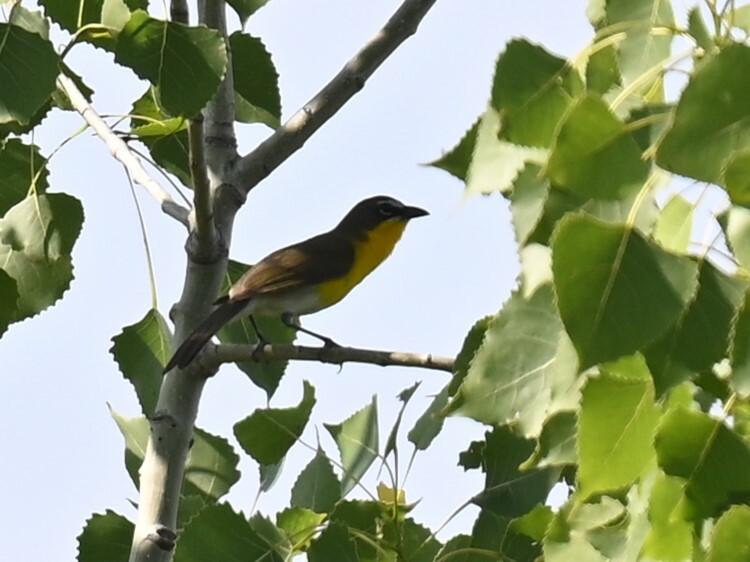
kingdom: Animalia
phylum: Chordata
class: Aves
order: Passeriformes
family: Parulidae
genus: Icteria
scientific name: Icteria virens
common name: Yellow-breasted chat
